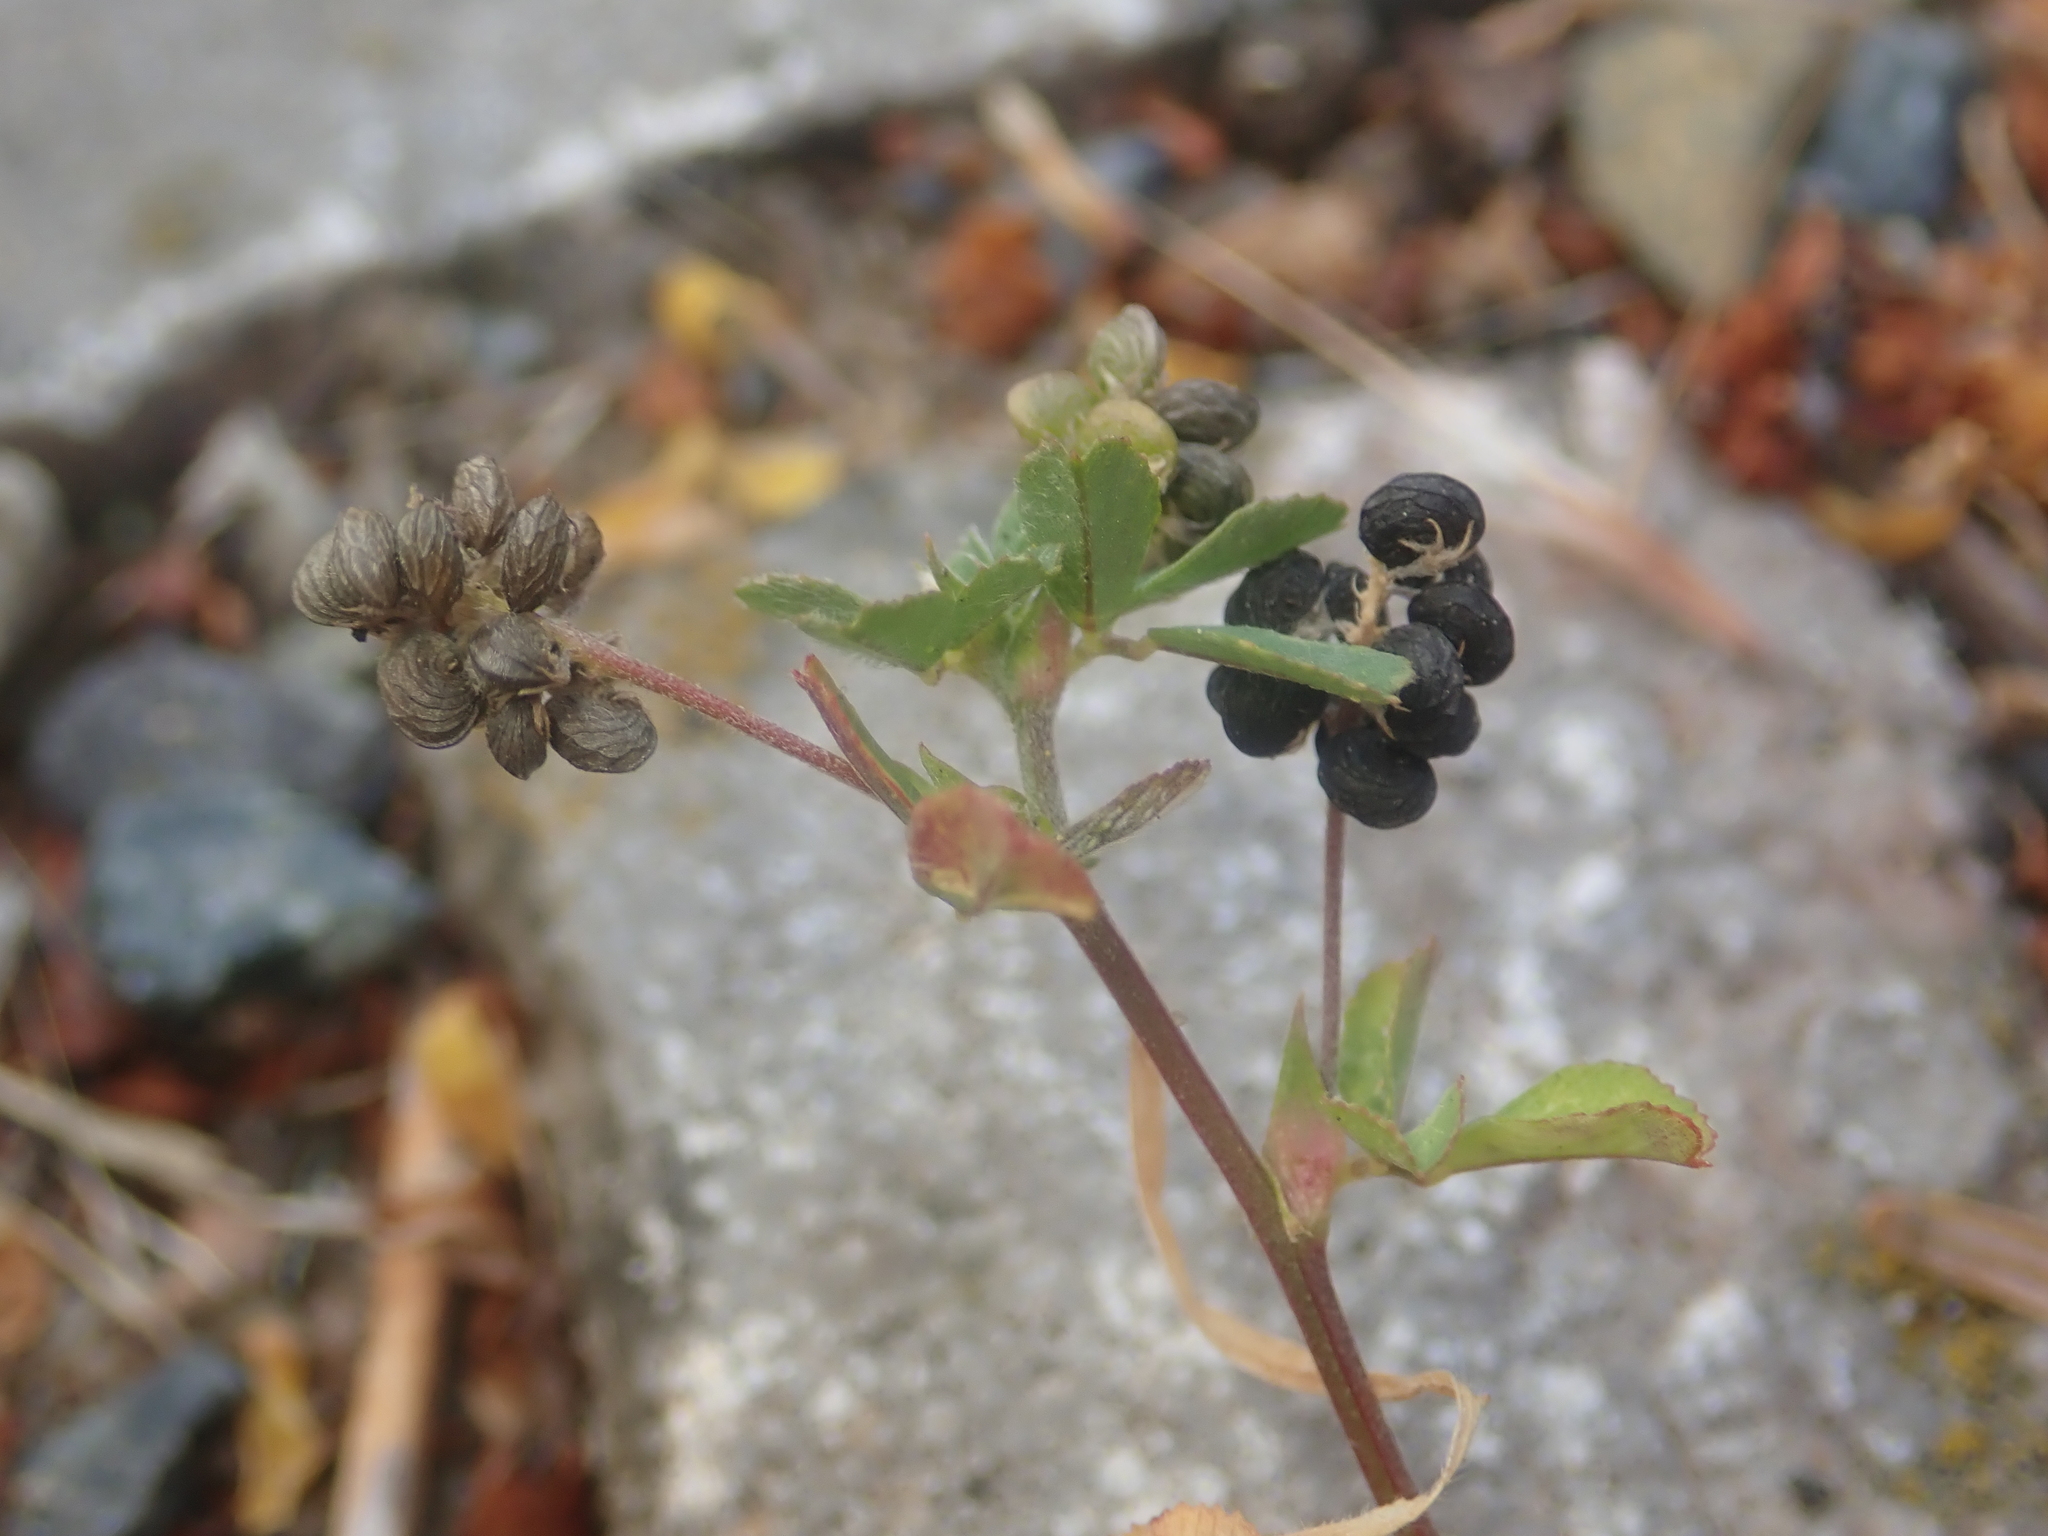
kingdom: Plantae
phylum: Tracheophyta
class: Magnoliopsida
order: Fabales
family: Fabaceae
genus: Medicago
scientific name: Medicago lupulina
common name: Black medick
